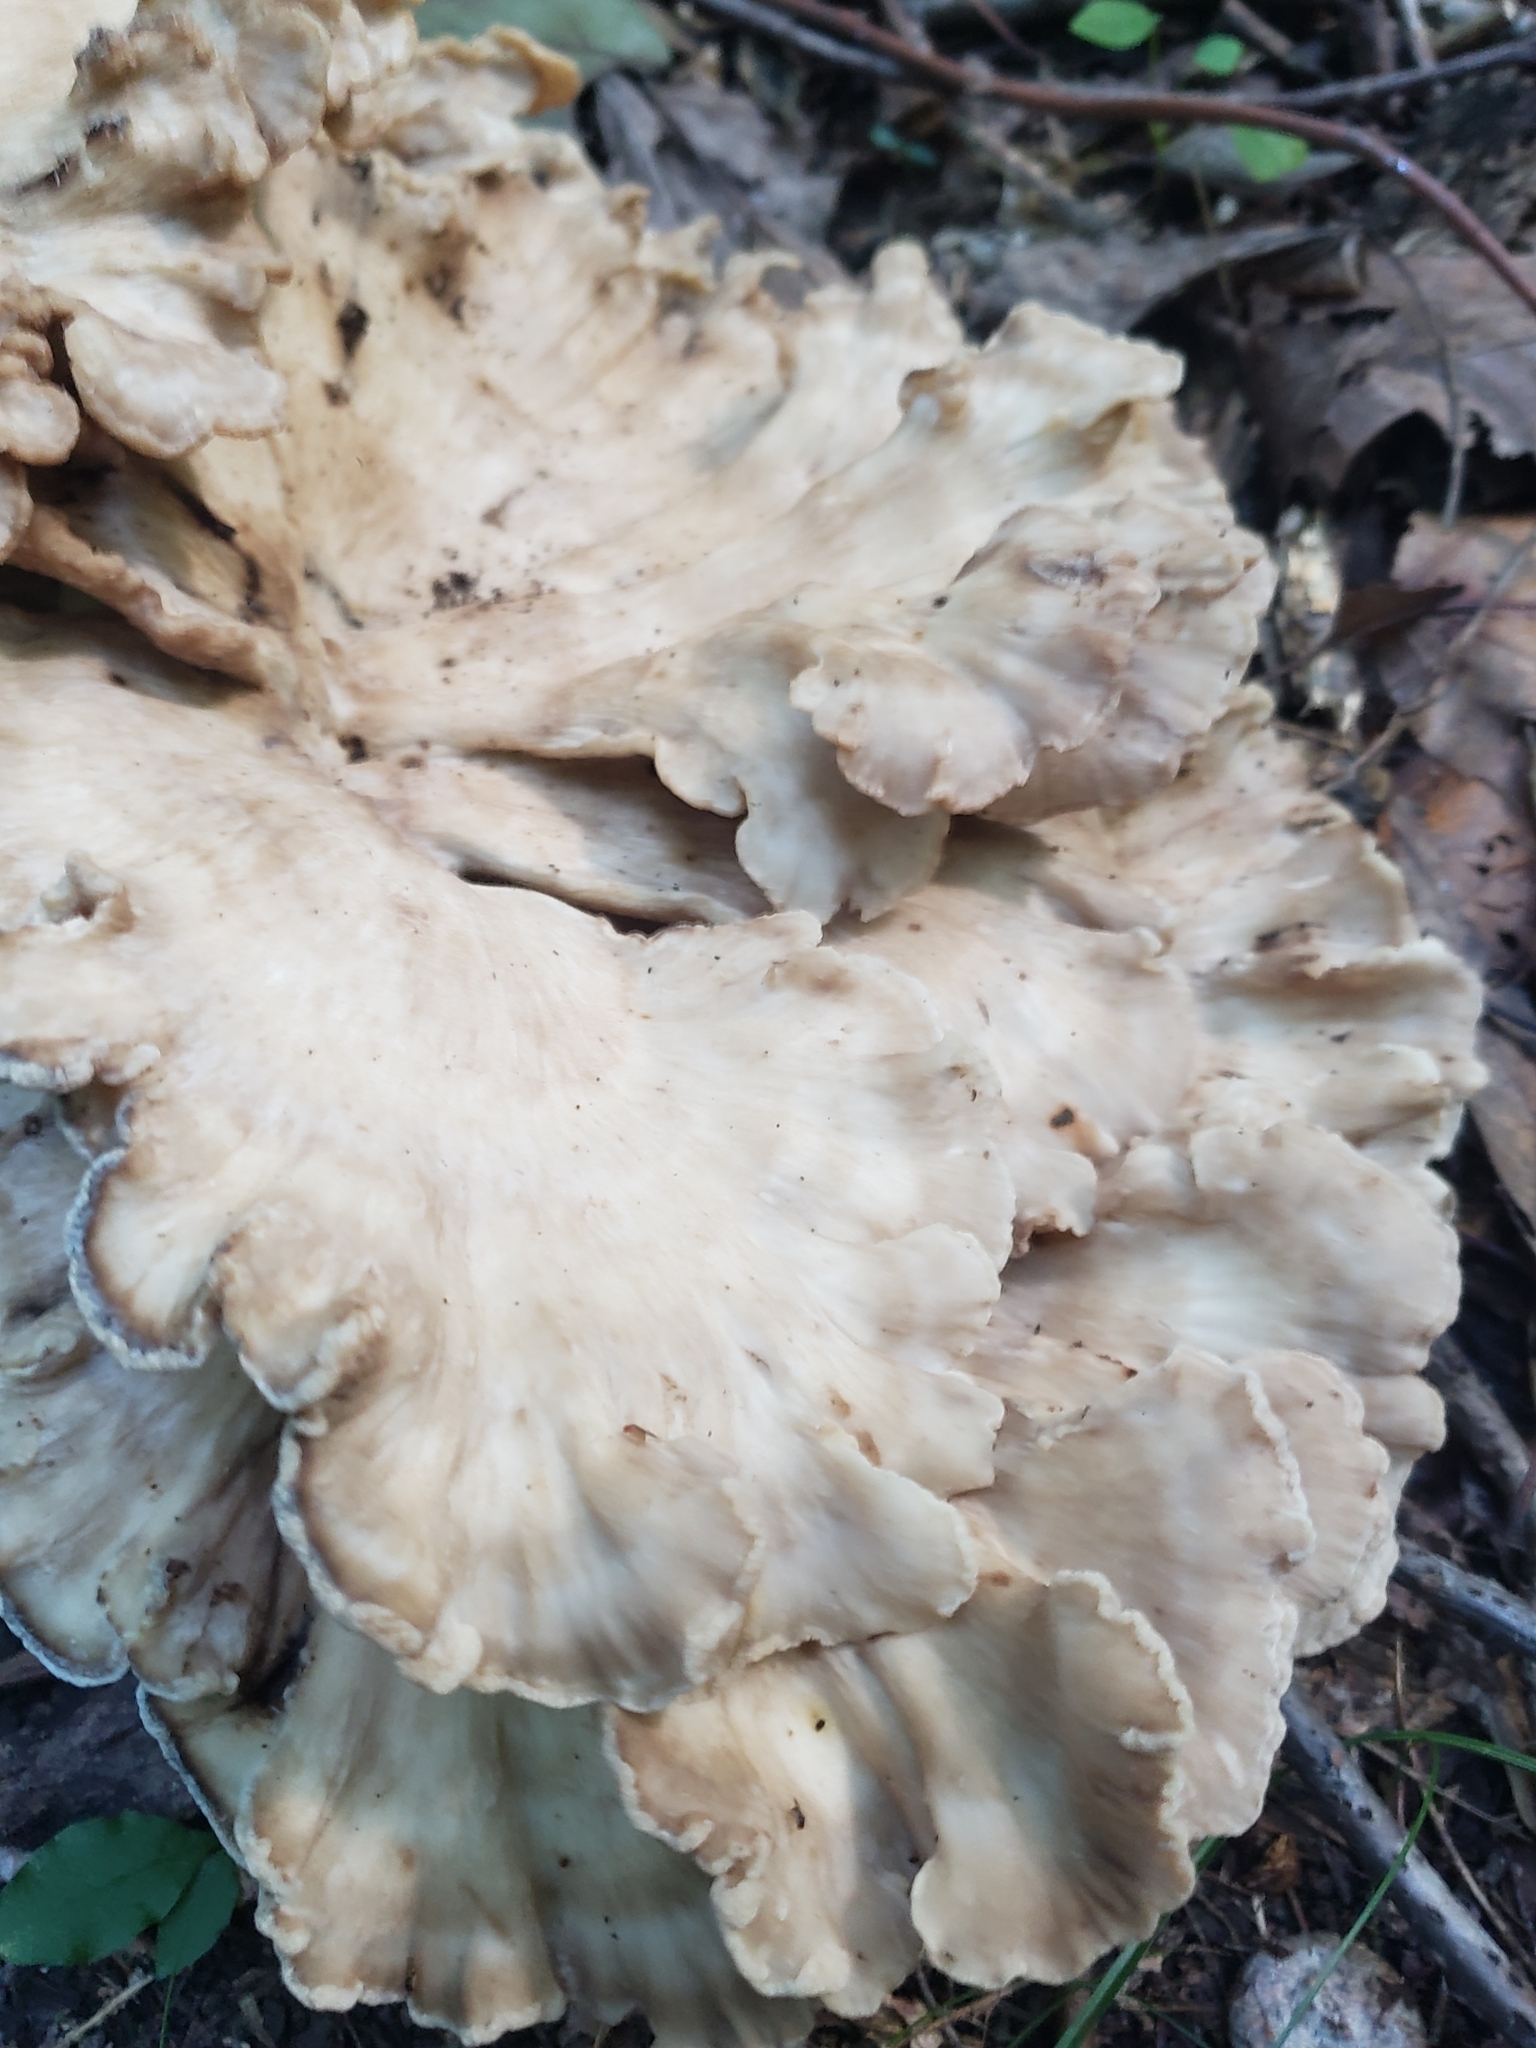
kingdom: Fungi
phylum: Basidiomycota
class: Agaricomycetes
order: Polyporales
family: Meripilaceae
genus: Meripilus
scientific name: Meripilus sumstinei
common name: Black-staining polypore
